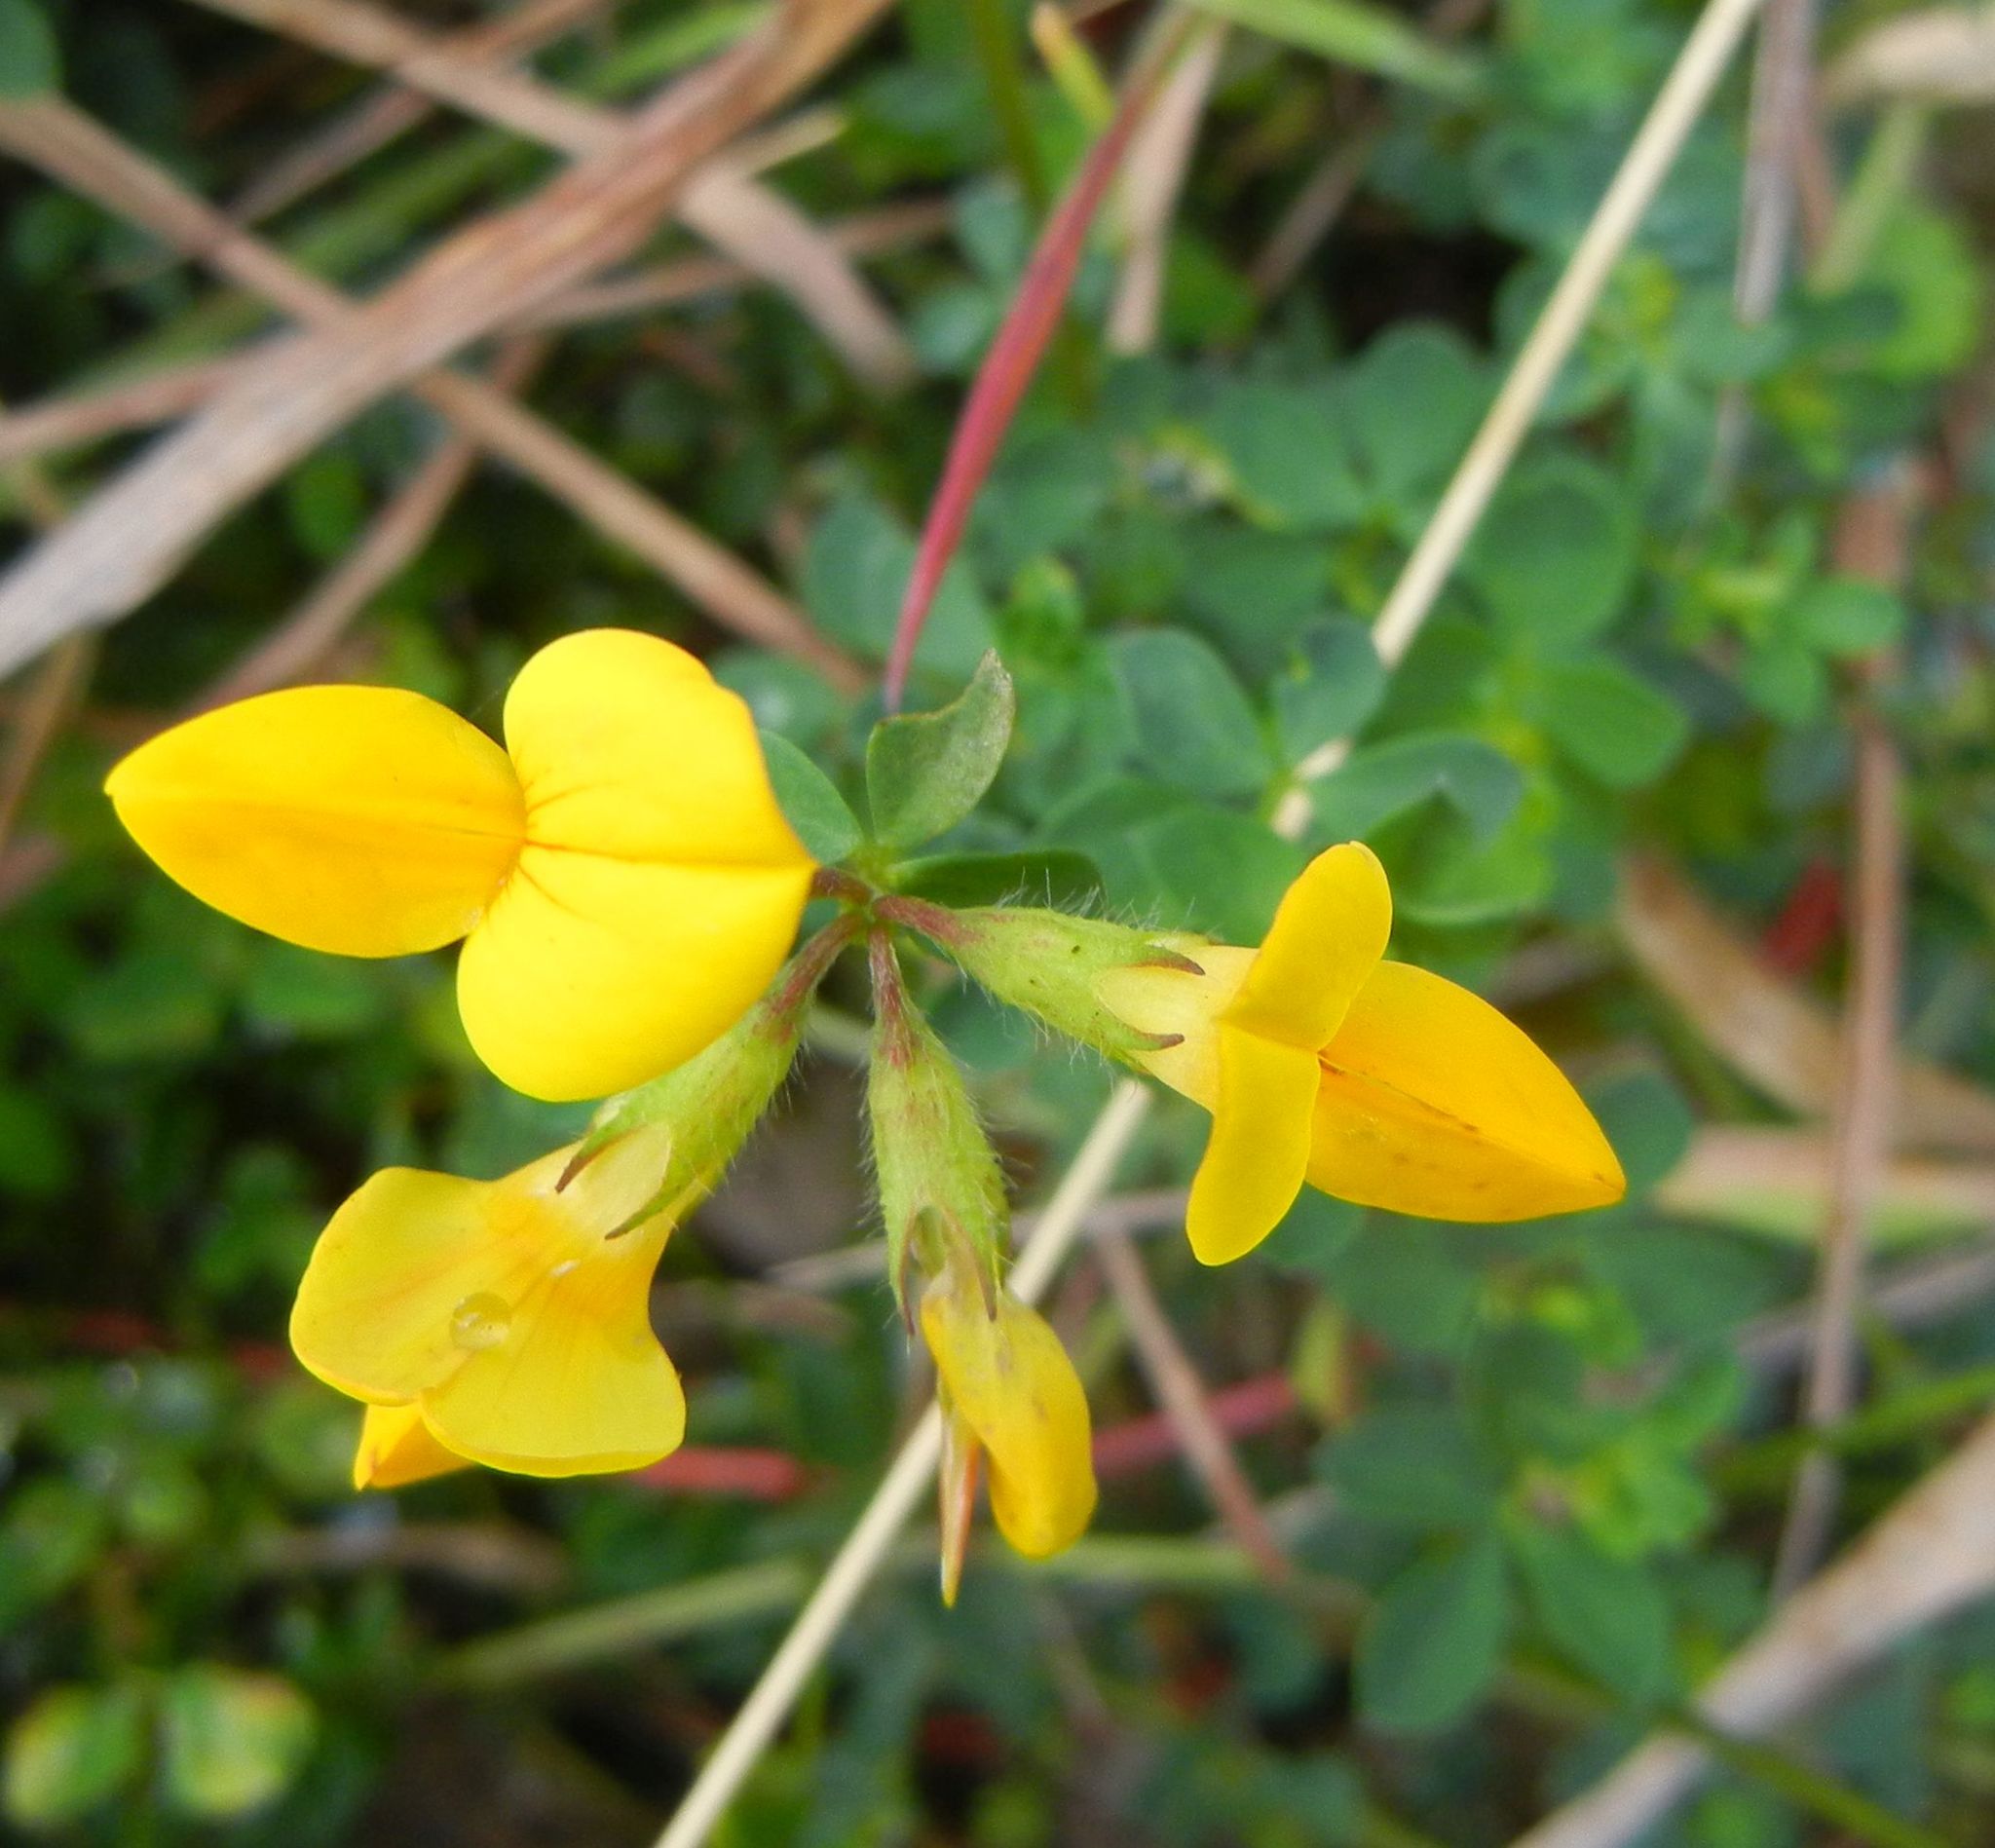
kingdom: Plantae
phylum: Tracheophyta
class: Magnoliopsida
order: Fabales
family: Fabaceae
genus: Lotus
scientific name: Lotus corniculatus
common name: Common bird's-foot-trefoil
